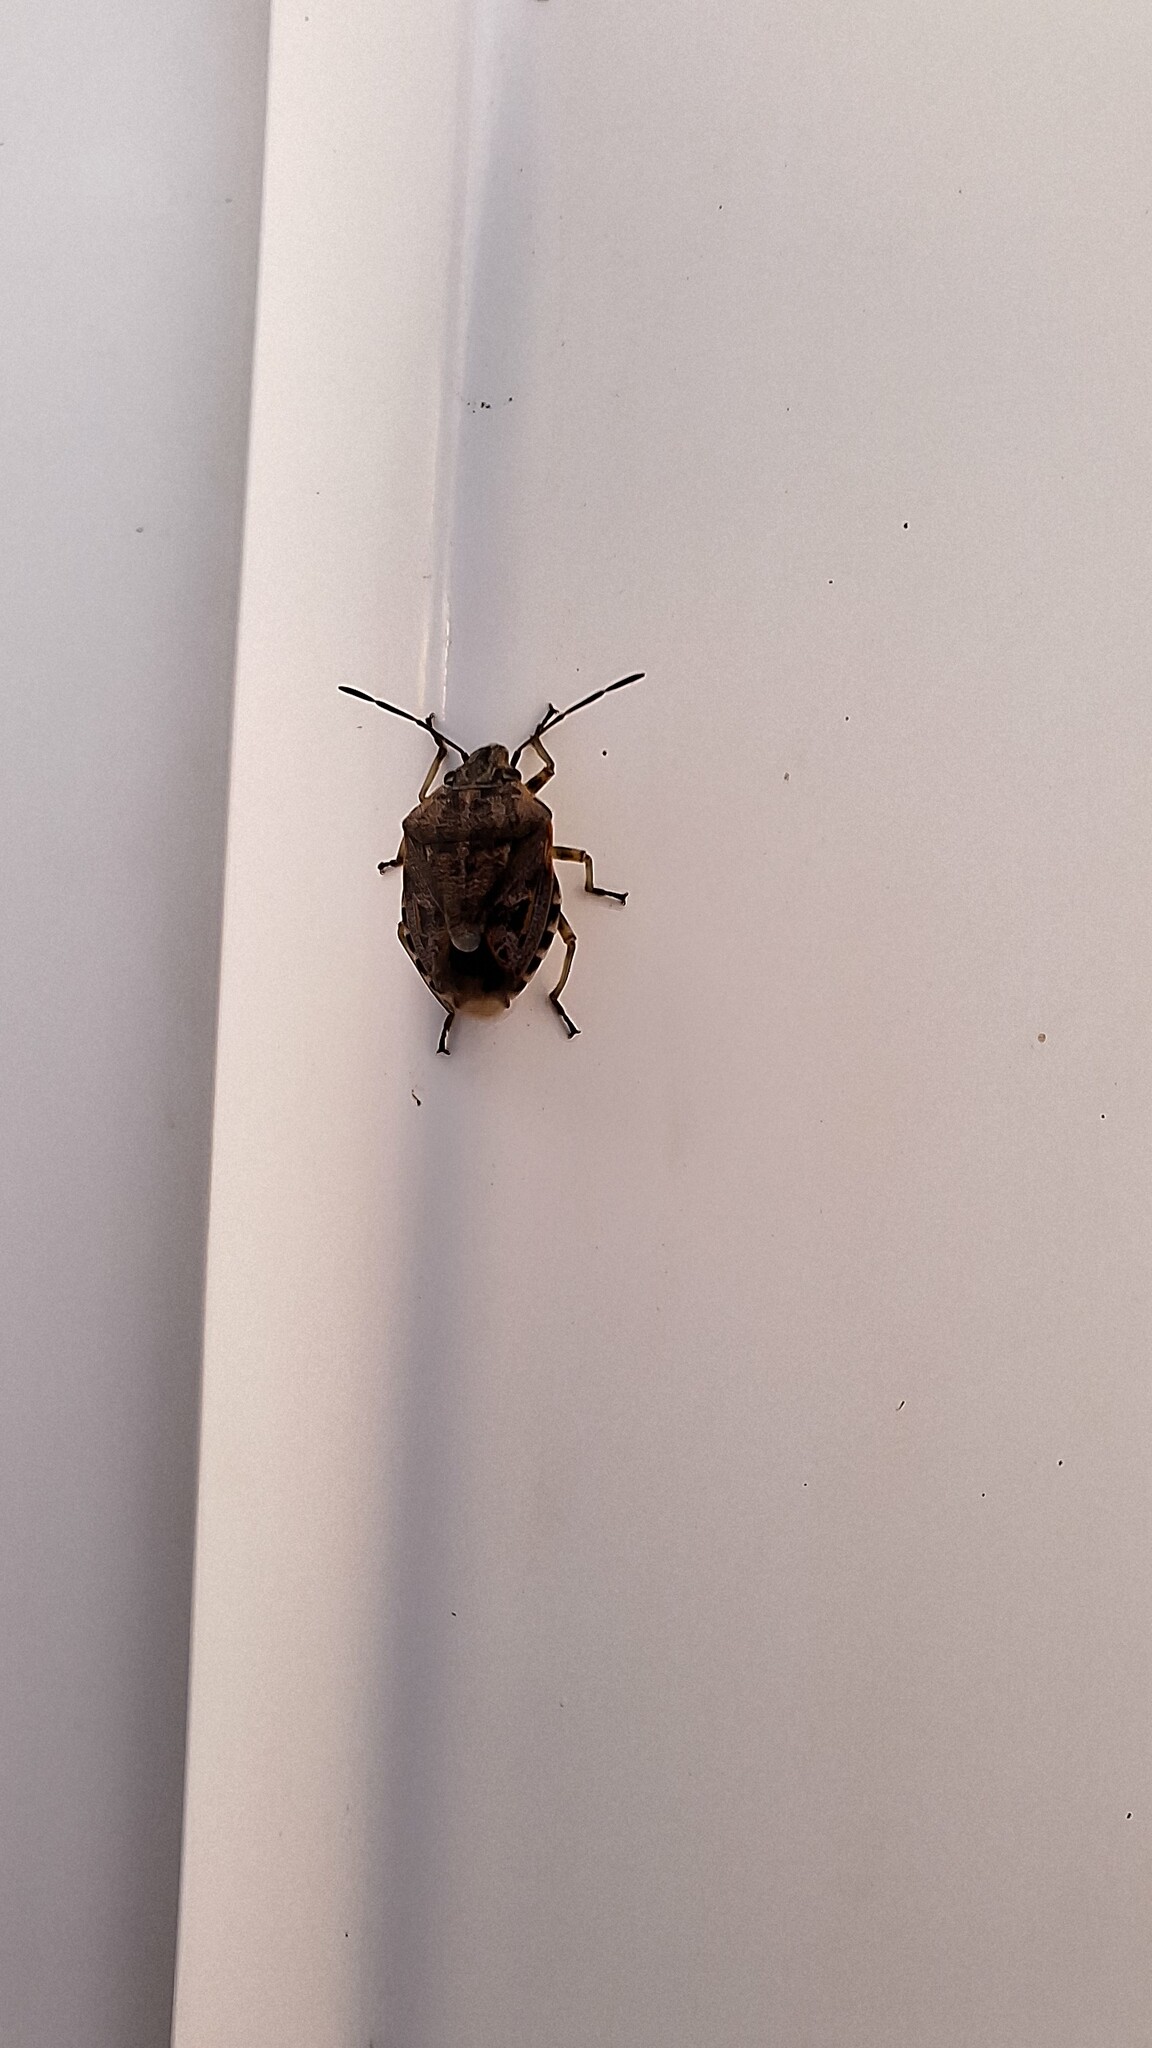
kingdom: Animalia
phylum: Arthropoda
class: Insecta
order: Hemiptera
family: Pentatomidae
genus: Holcogaster
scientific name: Holcogaster fibulata
